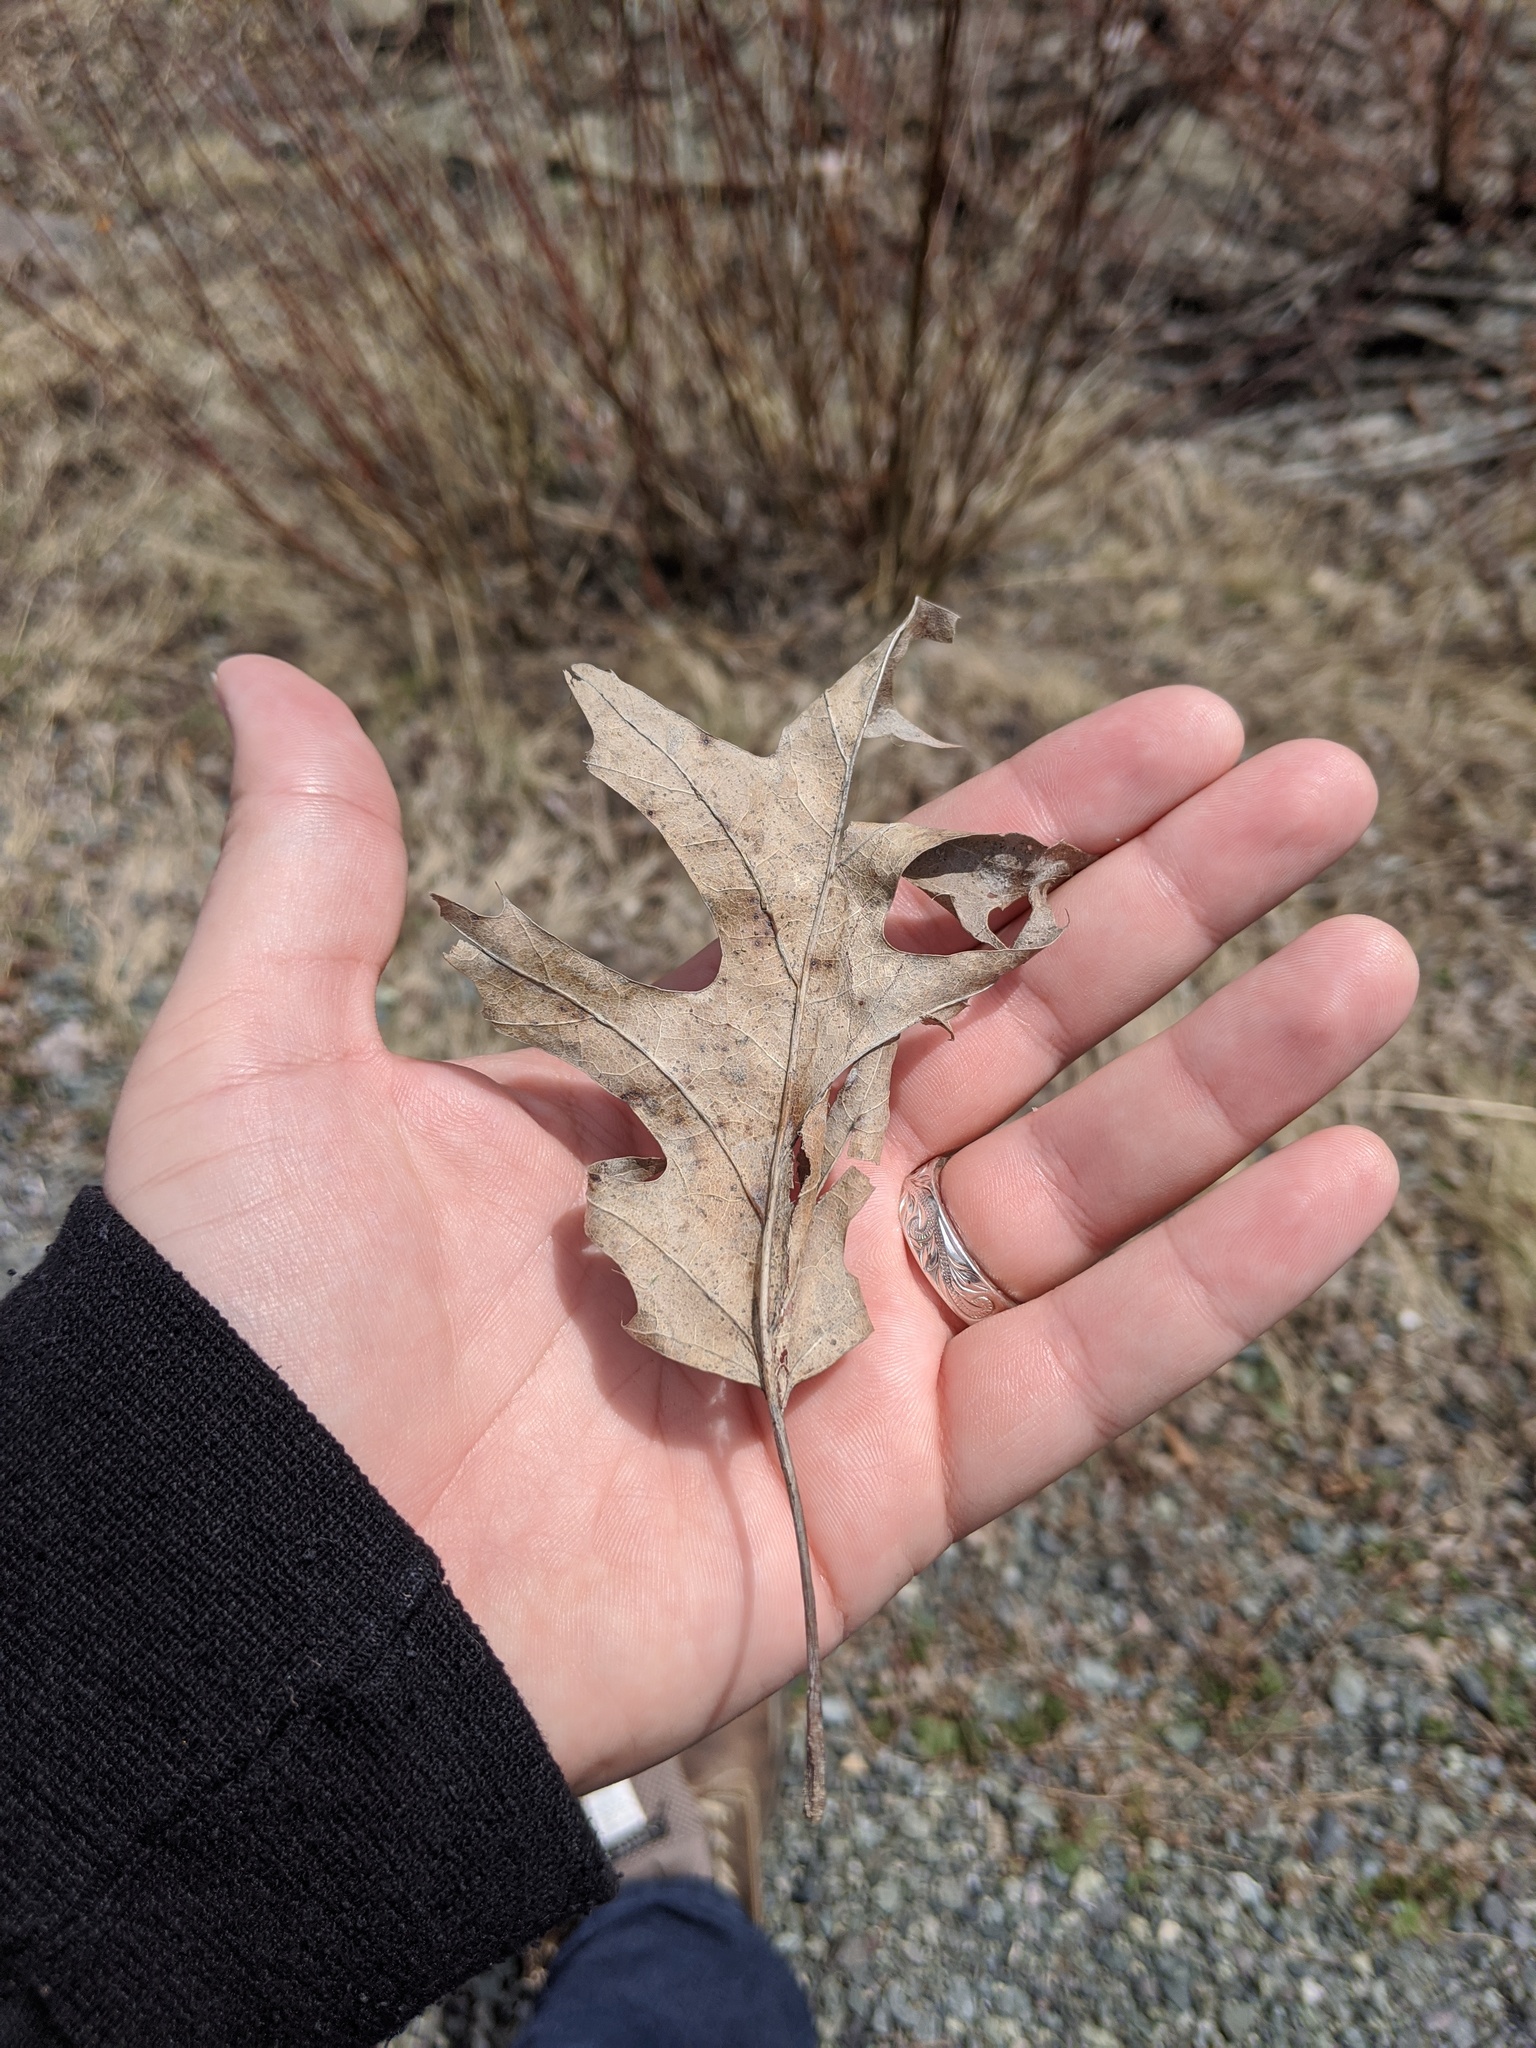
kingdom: Plantae
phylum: Tracheophyta
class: Magnoliopsida
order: Fagales
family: Fagaceae
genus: Quercus
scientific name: Quercus rubra
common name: Red oak
